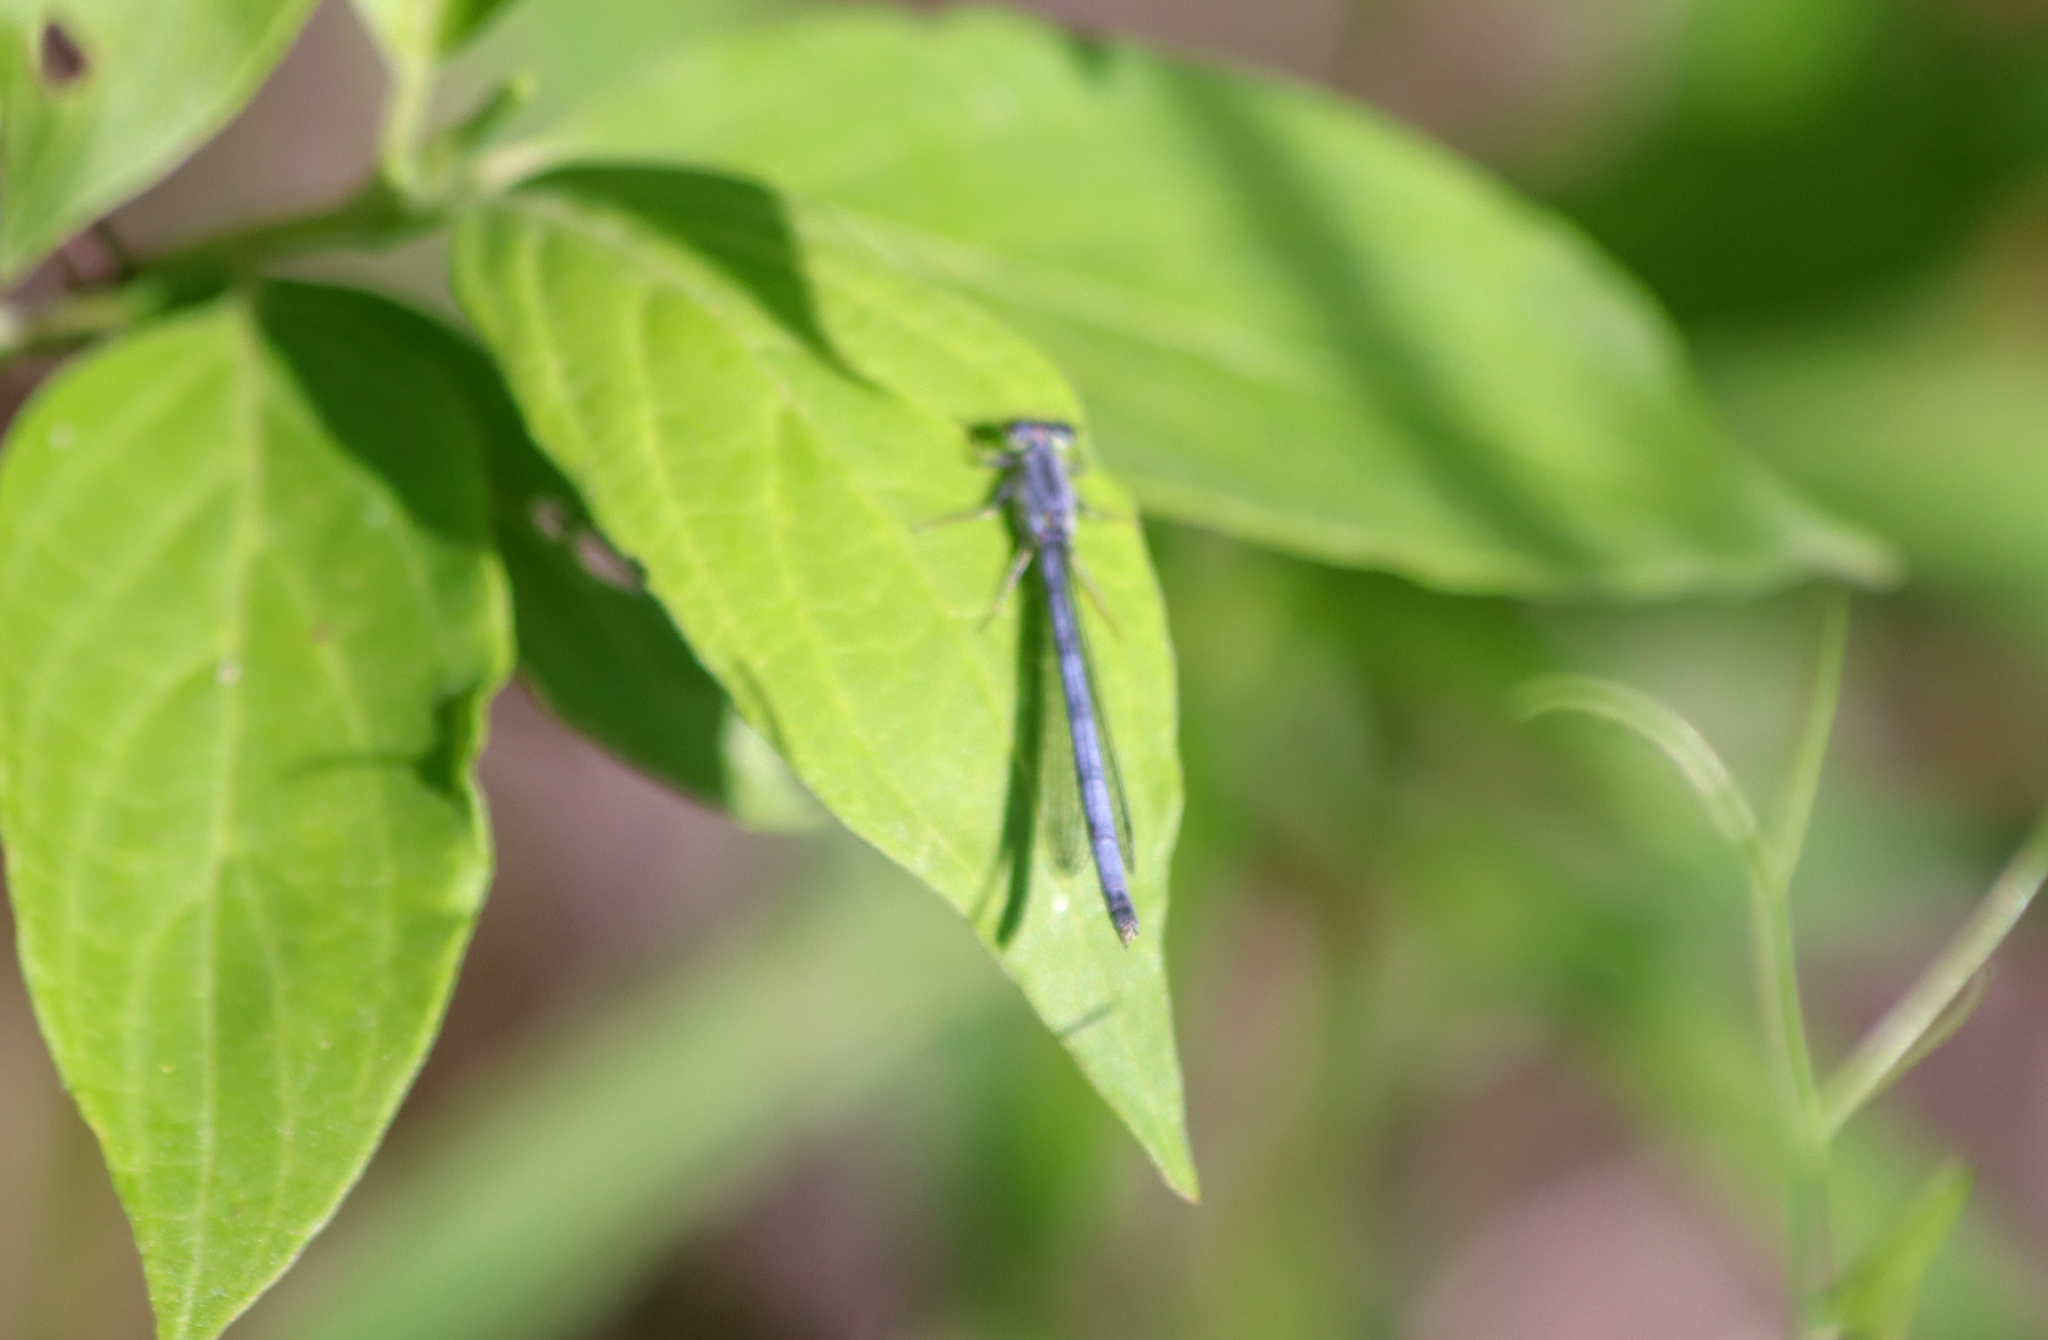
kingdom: Animalia
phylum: Arthropoda
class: Insecta
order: Odonata
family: Coenagrionidae
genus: Ischnura
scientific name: Ischnura verticalis
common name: Eastern forktail
